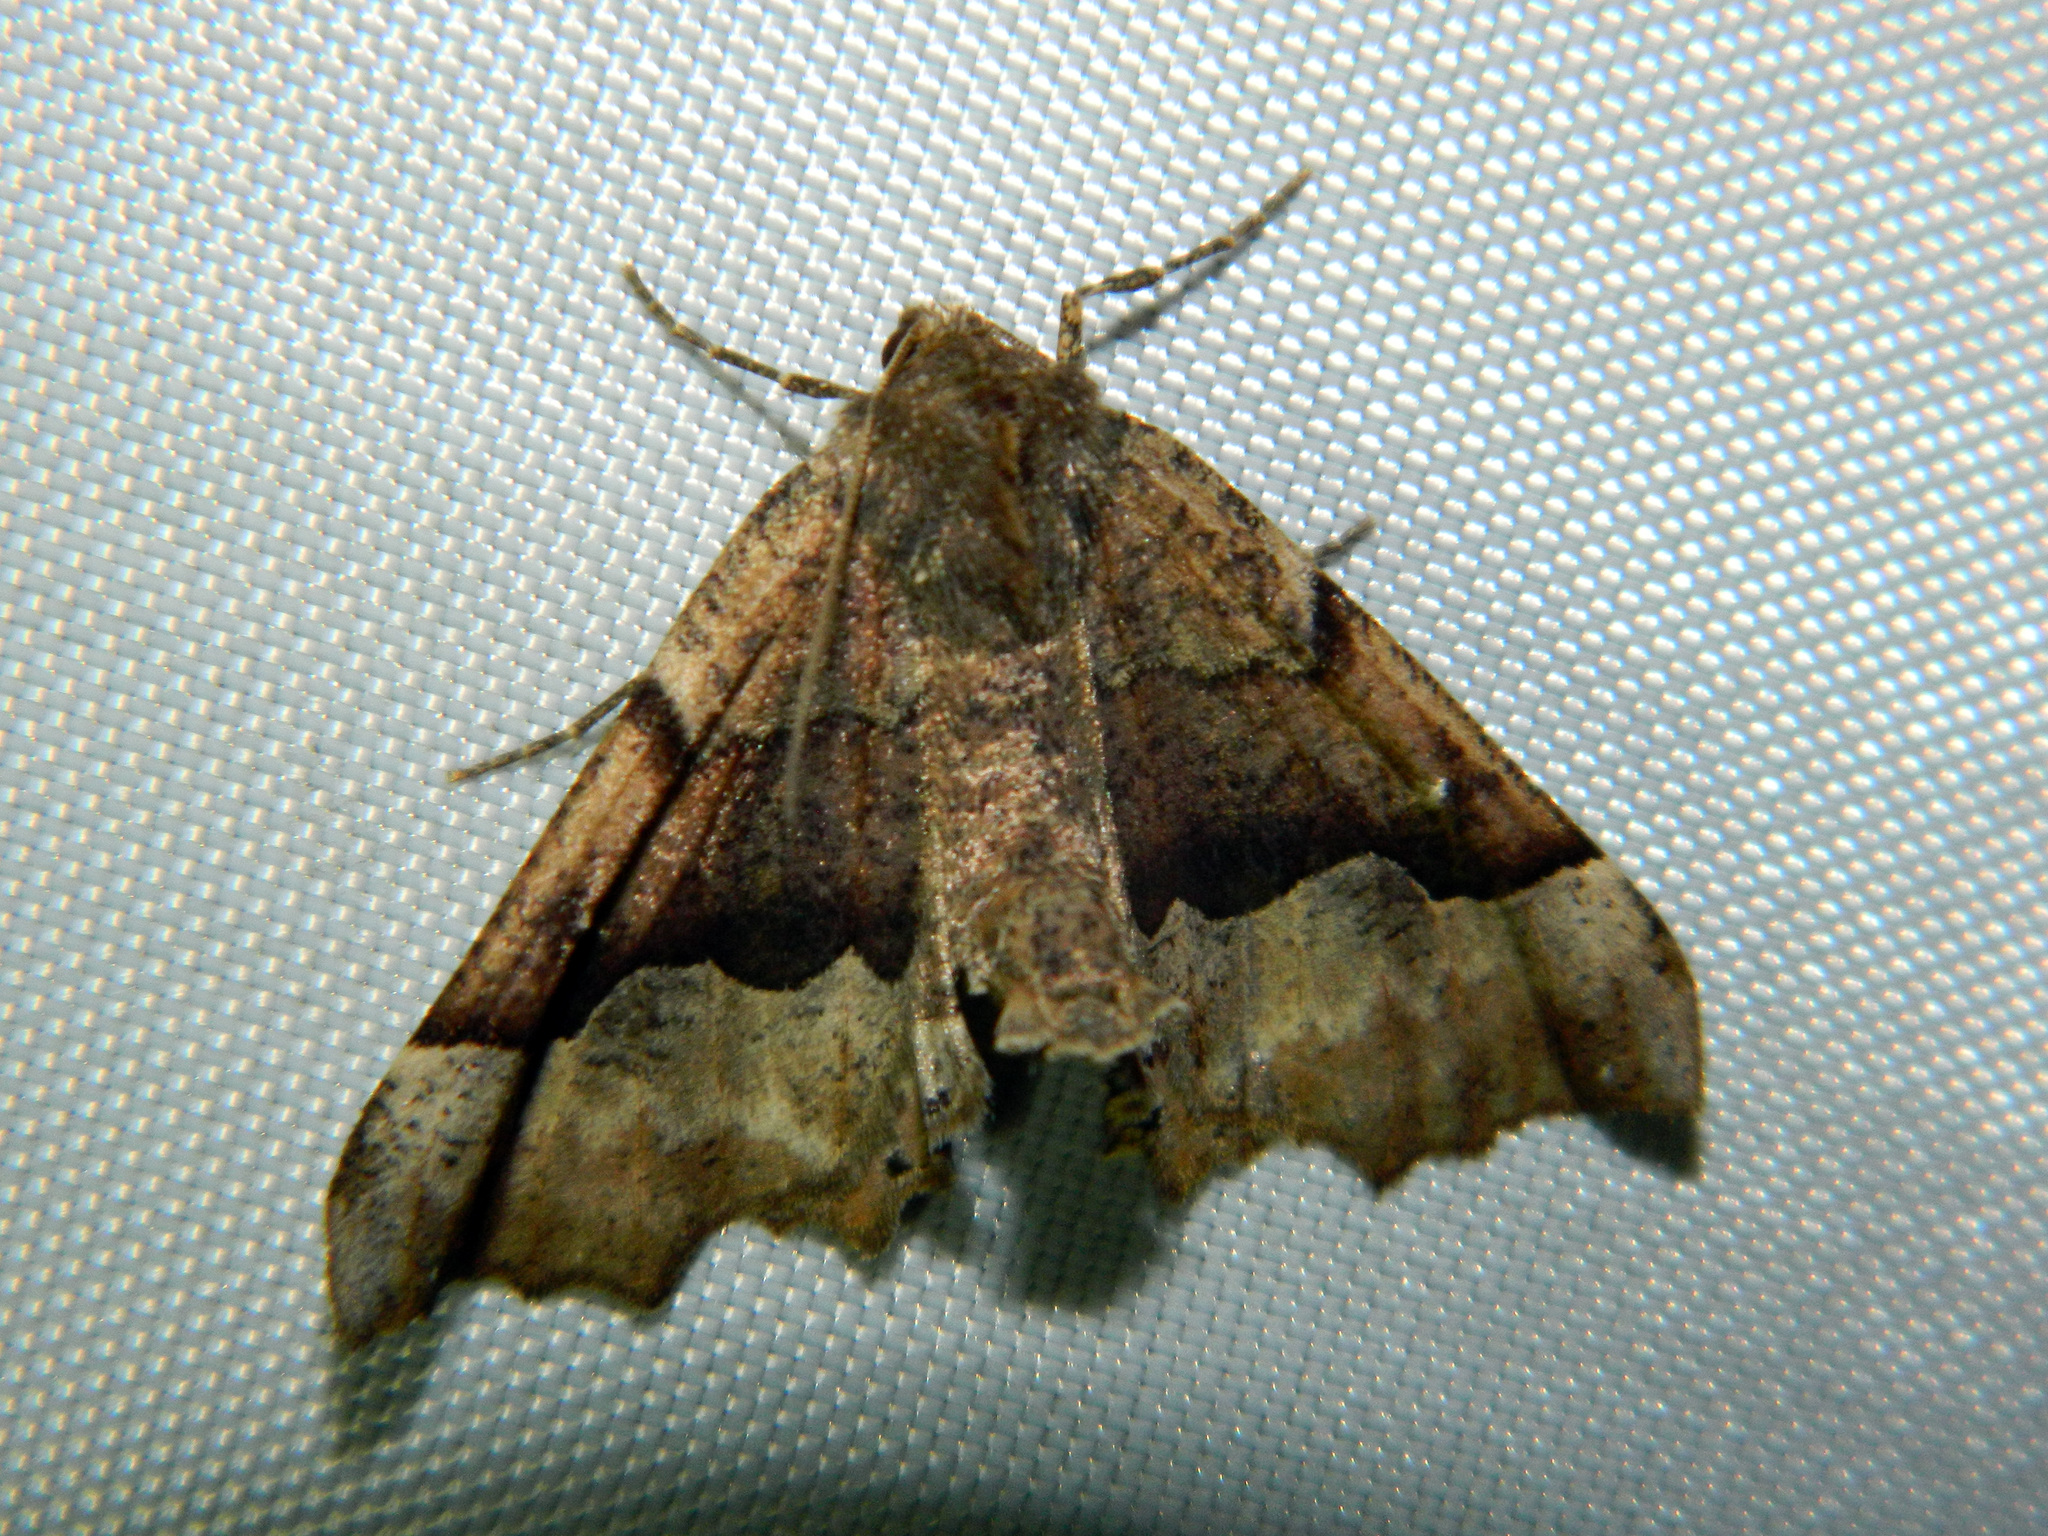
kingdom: Animalia
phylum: Arthropoda
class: Insecta
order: Lepidoptera
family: Geometridae
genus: Pero
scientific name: Pero morrisonaria
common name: Morrison's pero
